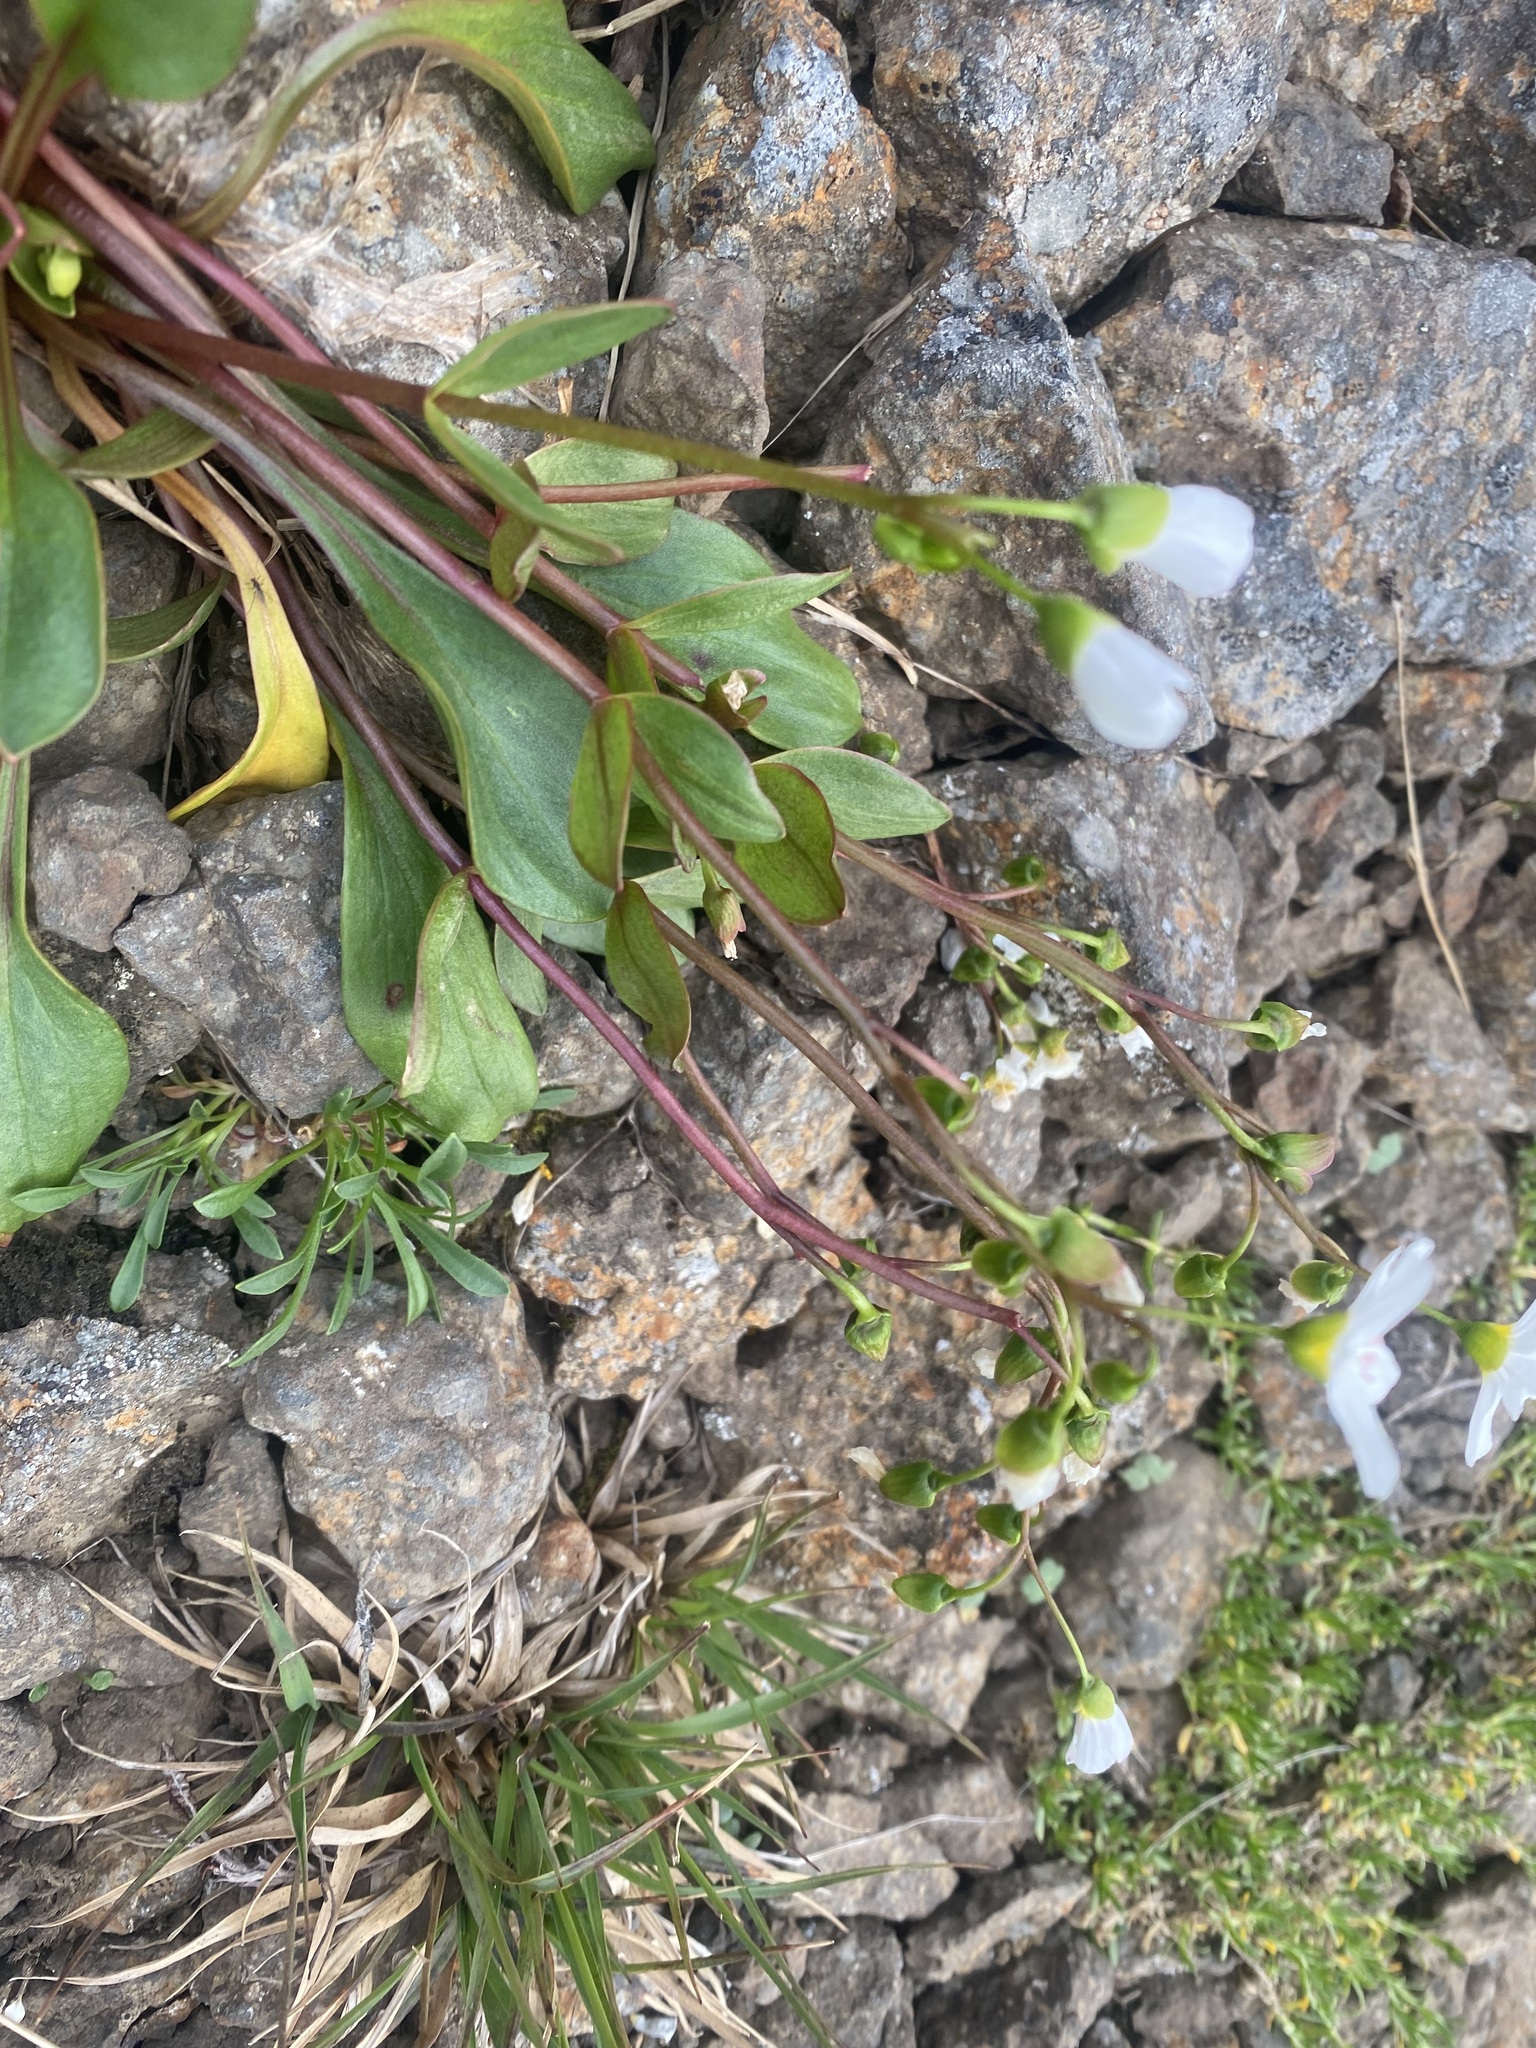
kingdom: Plantae
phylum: Tracheophyta
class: Magnoliopsida
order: Caryophyllales
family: Montiaceae
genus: Claytonia
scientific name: Claytonia joanneana
